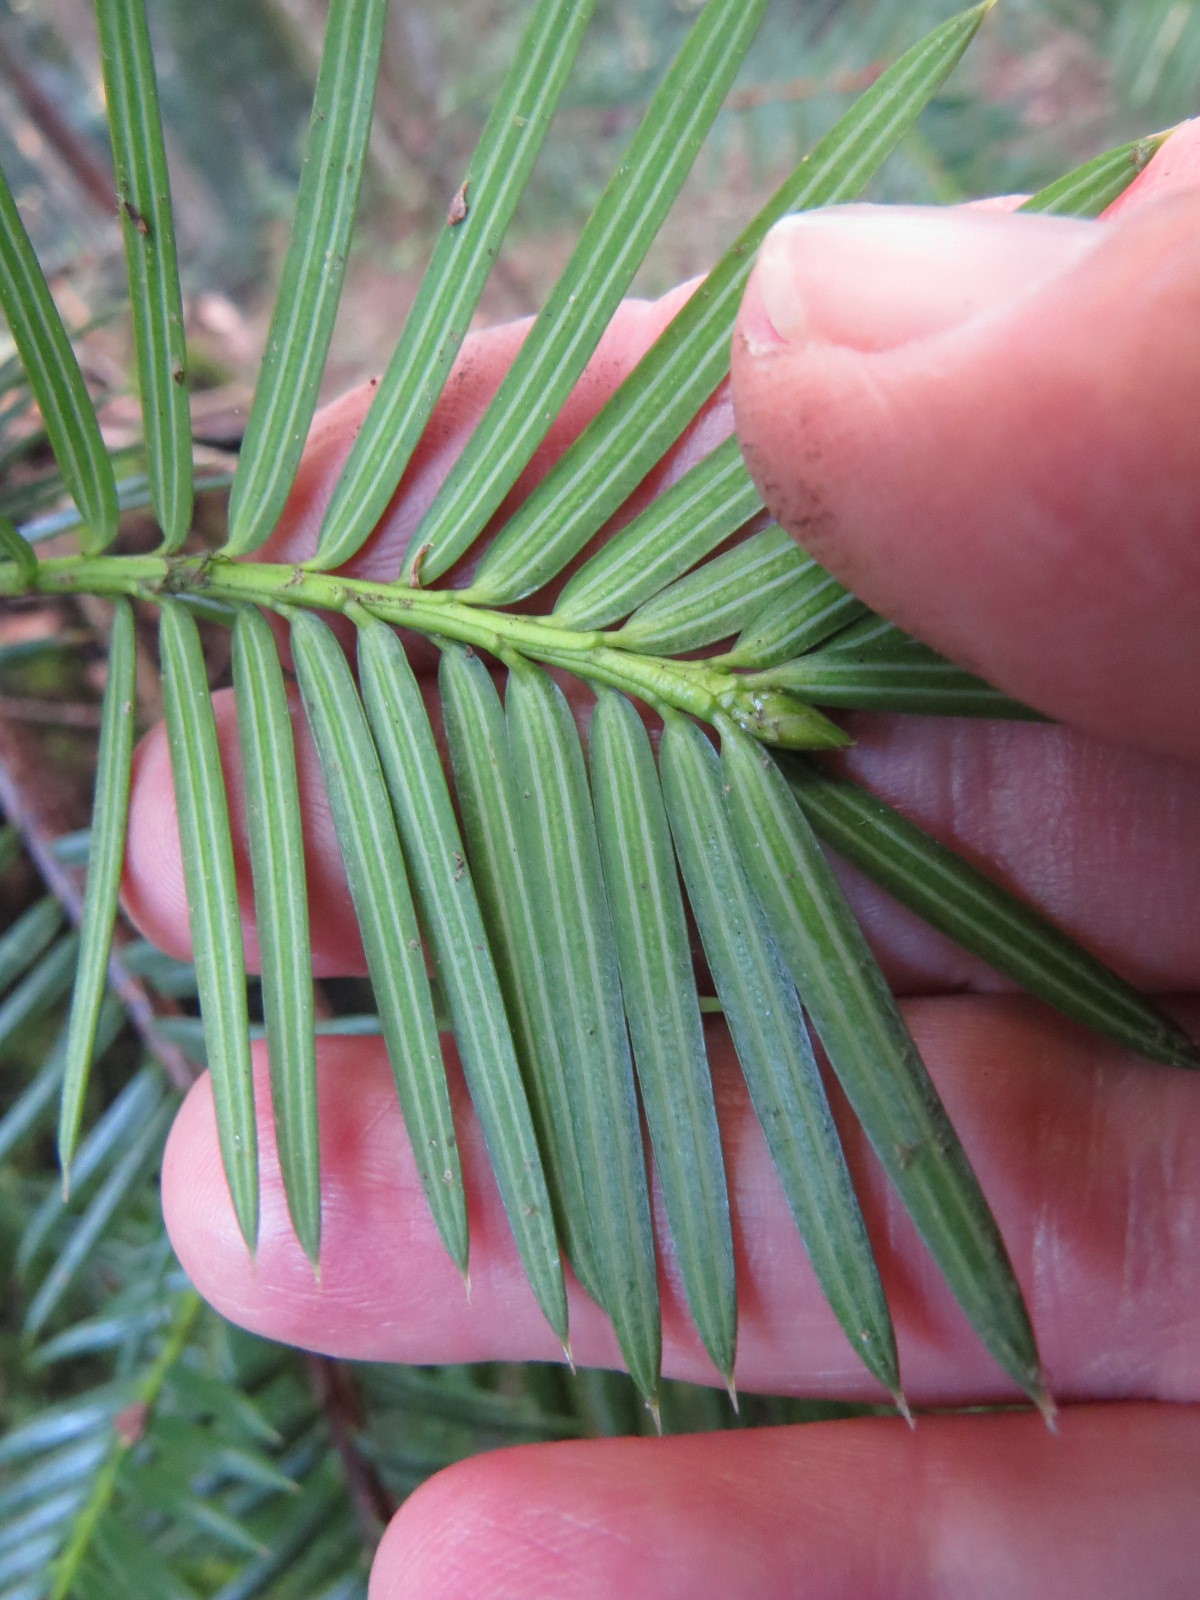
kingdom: Plantae
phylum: Tracheophyta
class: Pinopsida
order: Pinales
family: Taxaceae
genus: Torreya
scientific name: Torreya californica
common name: California torreya
